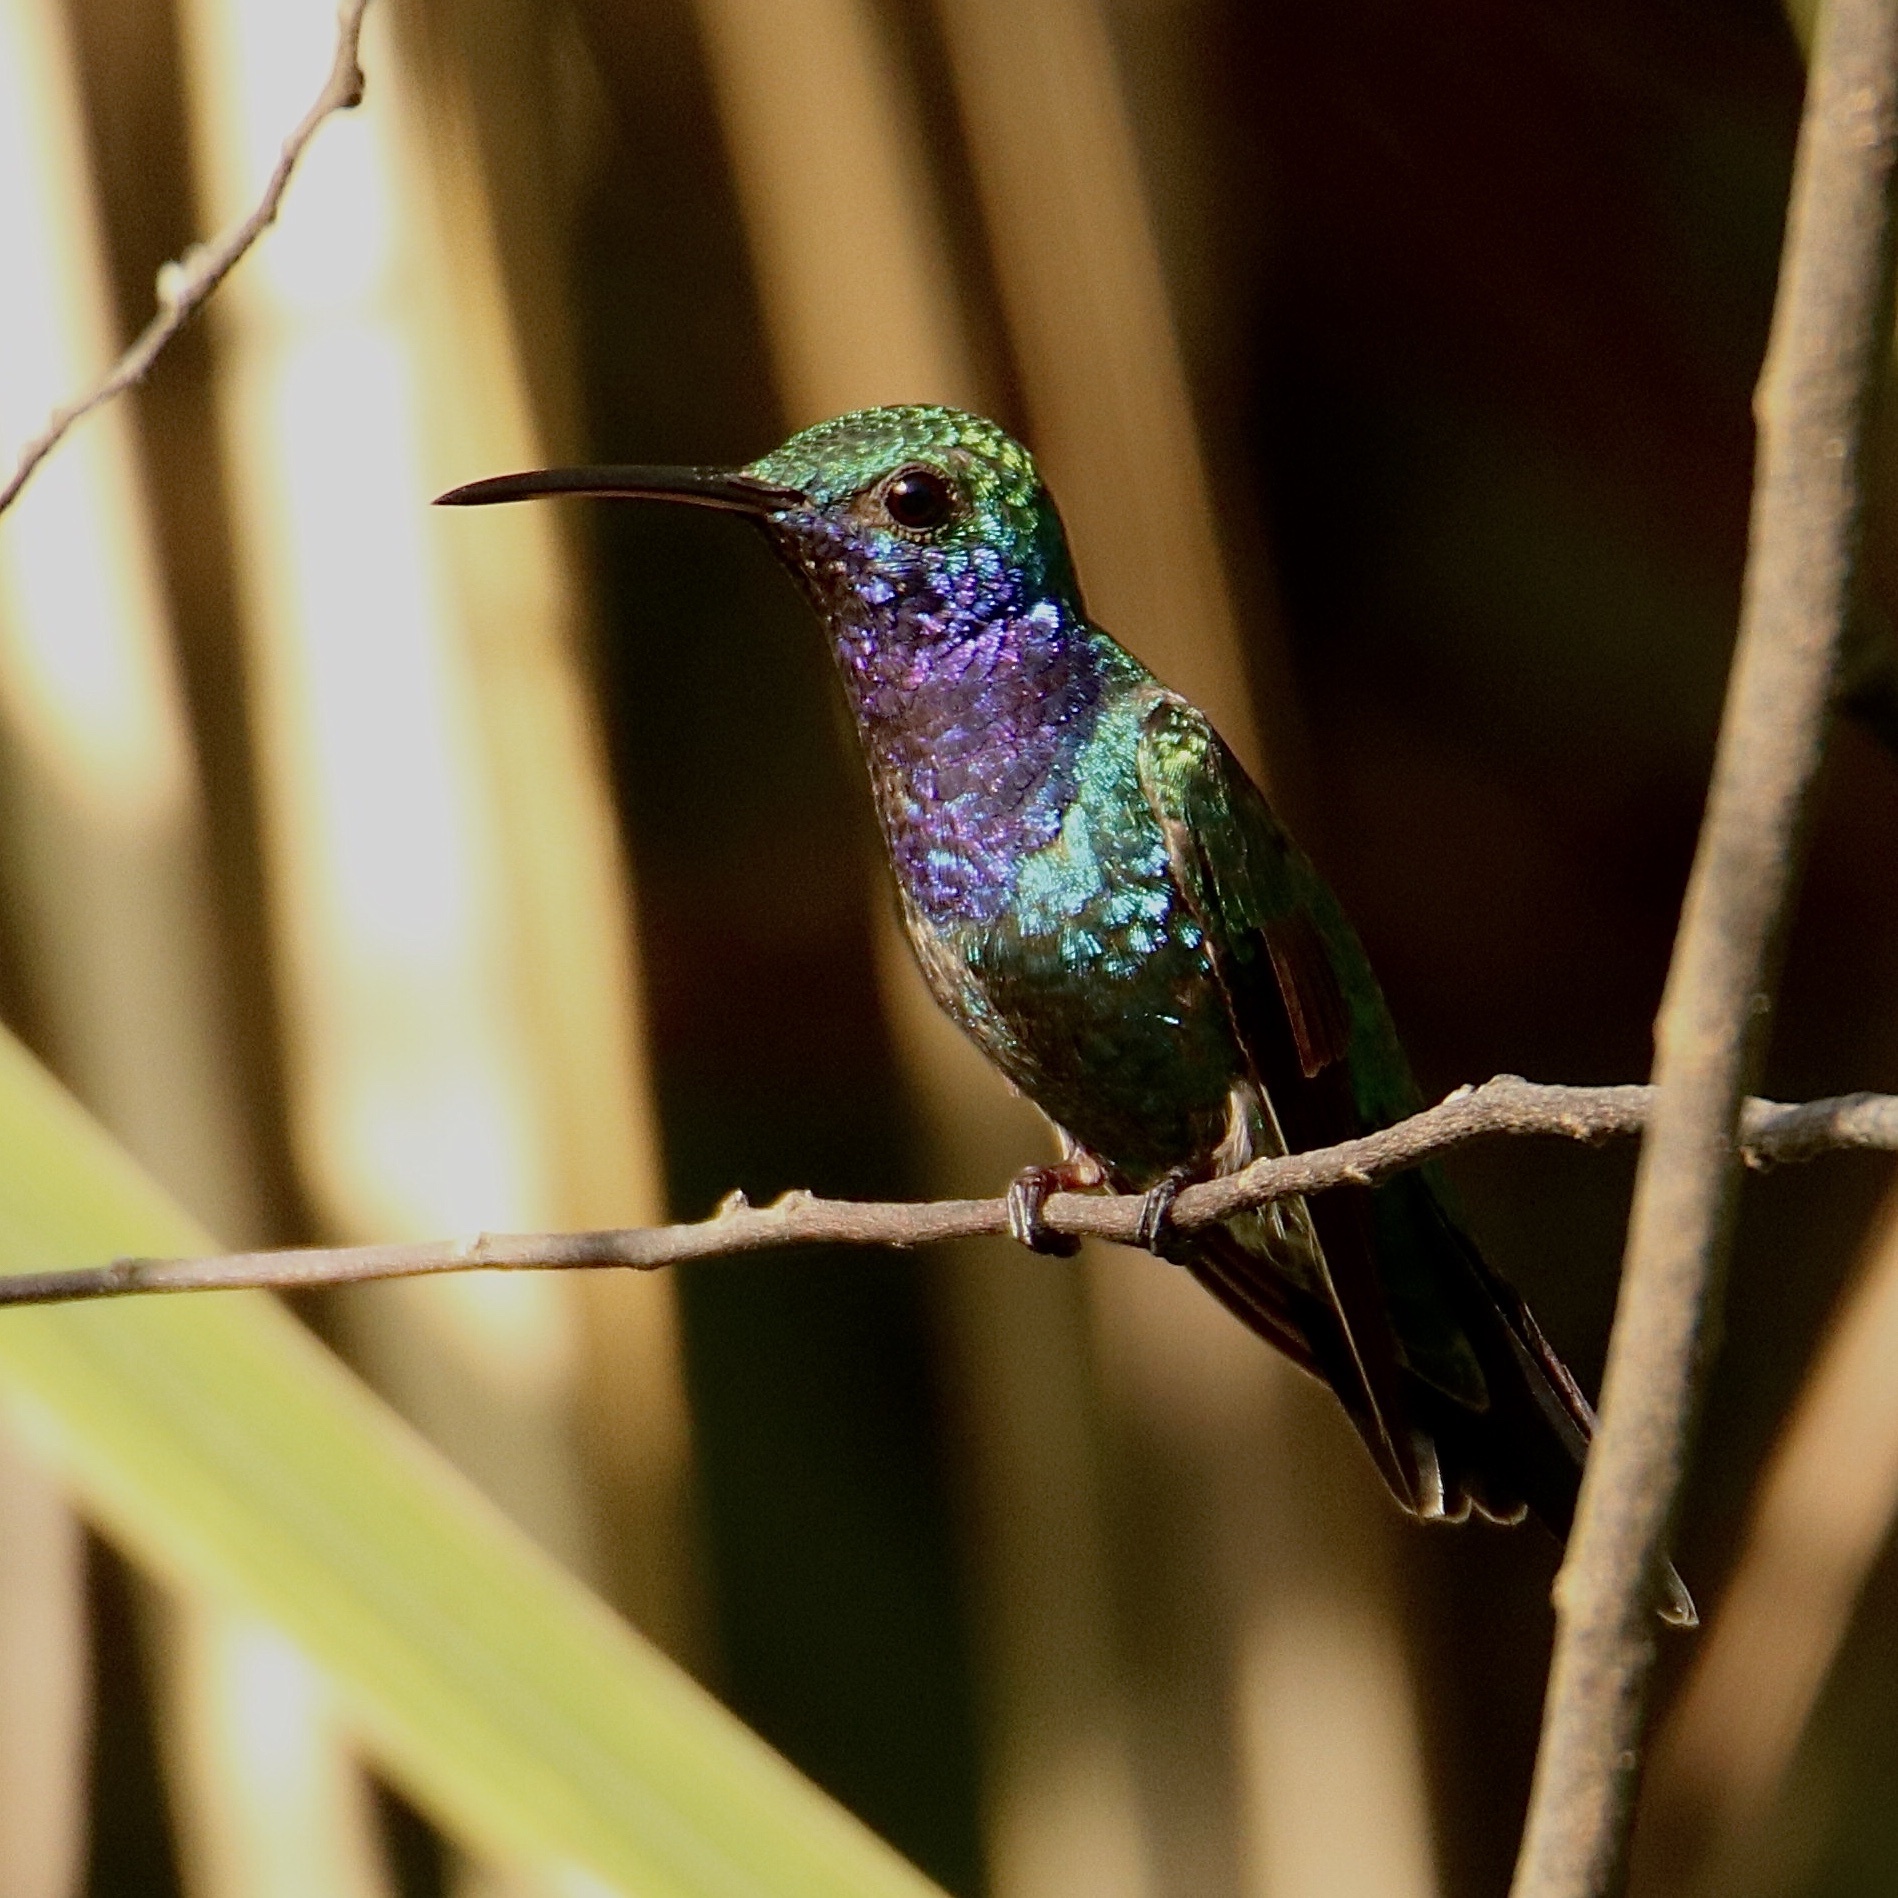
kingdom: Animalia
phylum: Chordata
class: Aves
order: Apodiformes
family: Trochilidae
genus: Chrysuronia
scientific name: Chrysuronia coeruleogularis
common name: Sapphire-throated hummingbird
